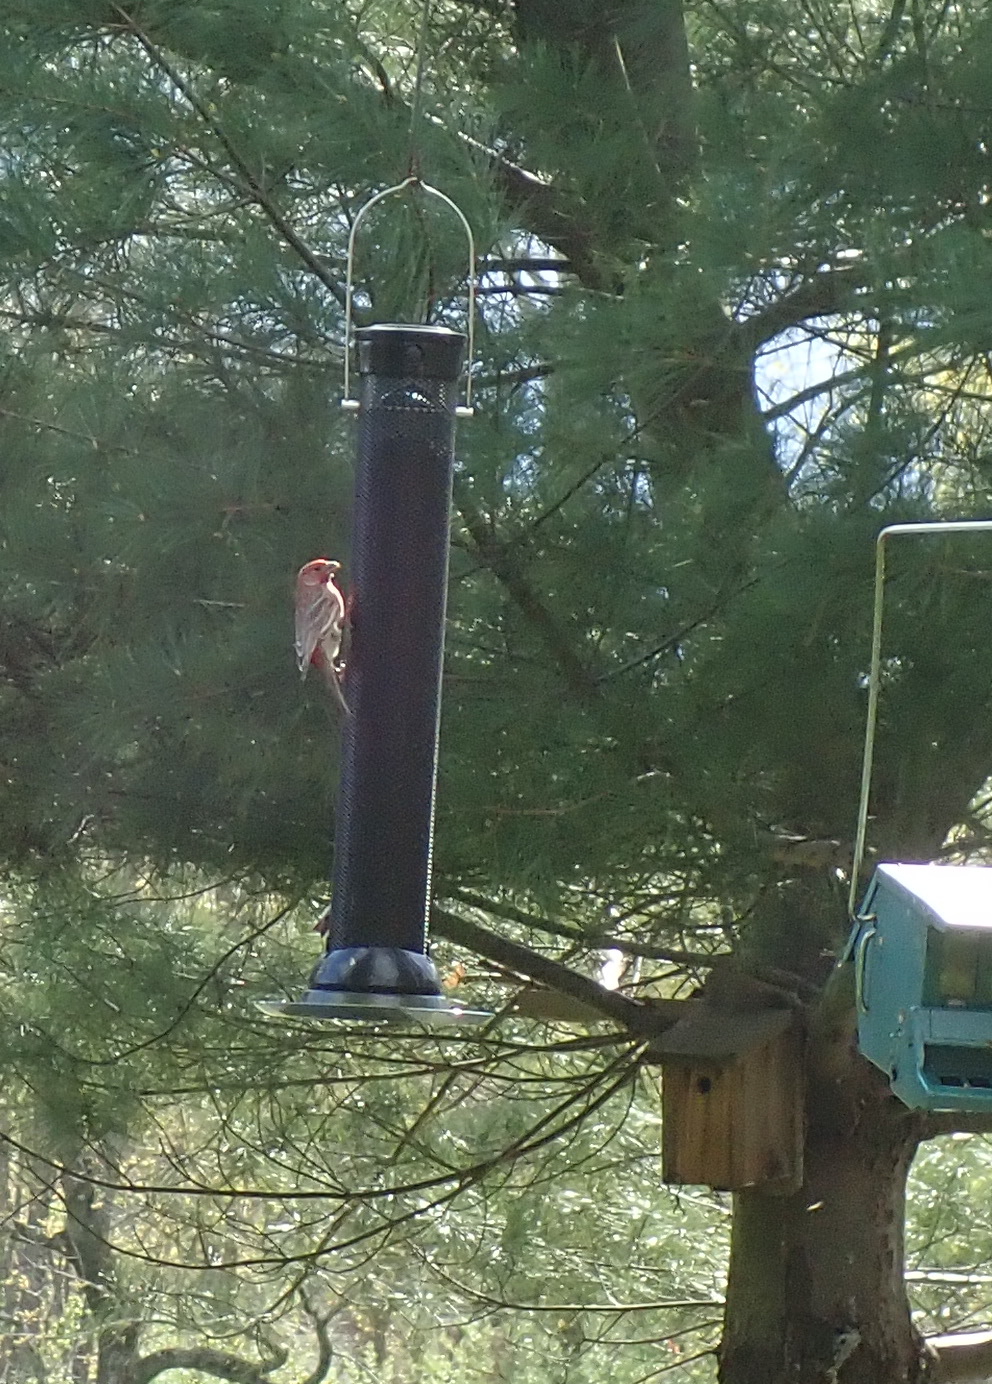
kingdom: Animalia
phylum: Chordata
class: Aves
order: Passeriformes
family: Fringillidae
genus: Haemorhous
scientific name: Haemorhous mexicanus
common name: House finch
